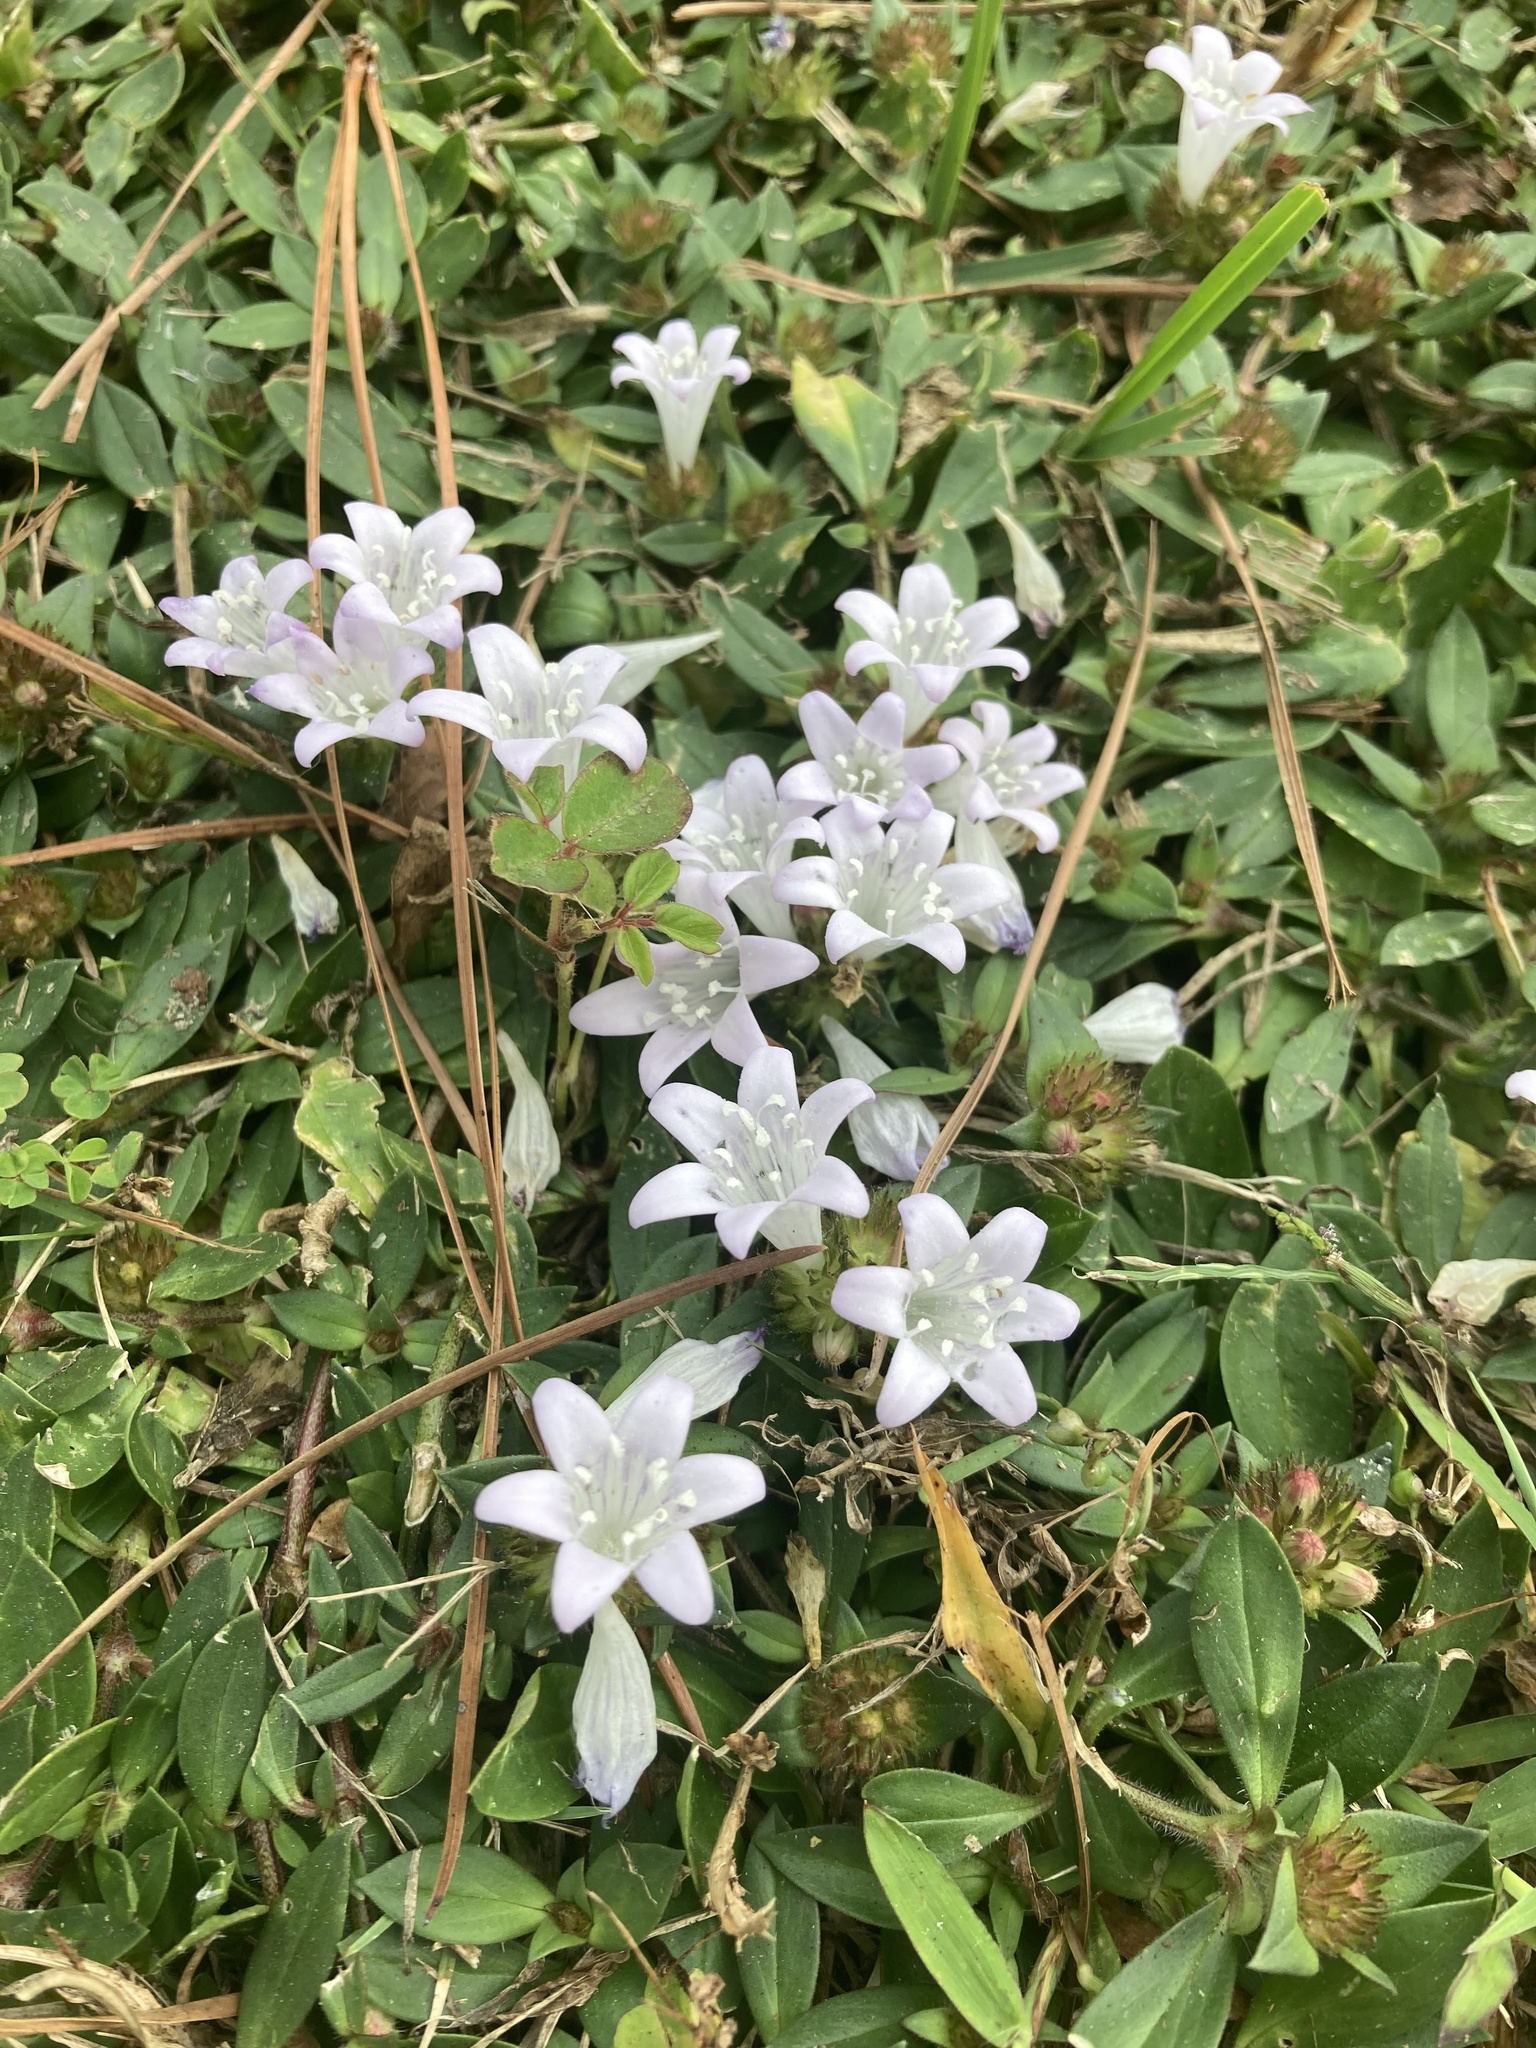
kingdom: Plantae
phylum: Tracheophyta
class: Magnoliopsida
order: Gentianales
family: Rubiaceae
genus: Richardia
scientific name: Richardia grandiflora
